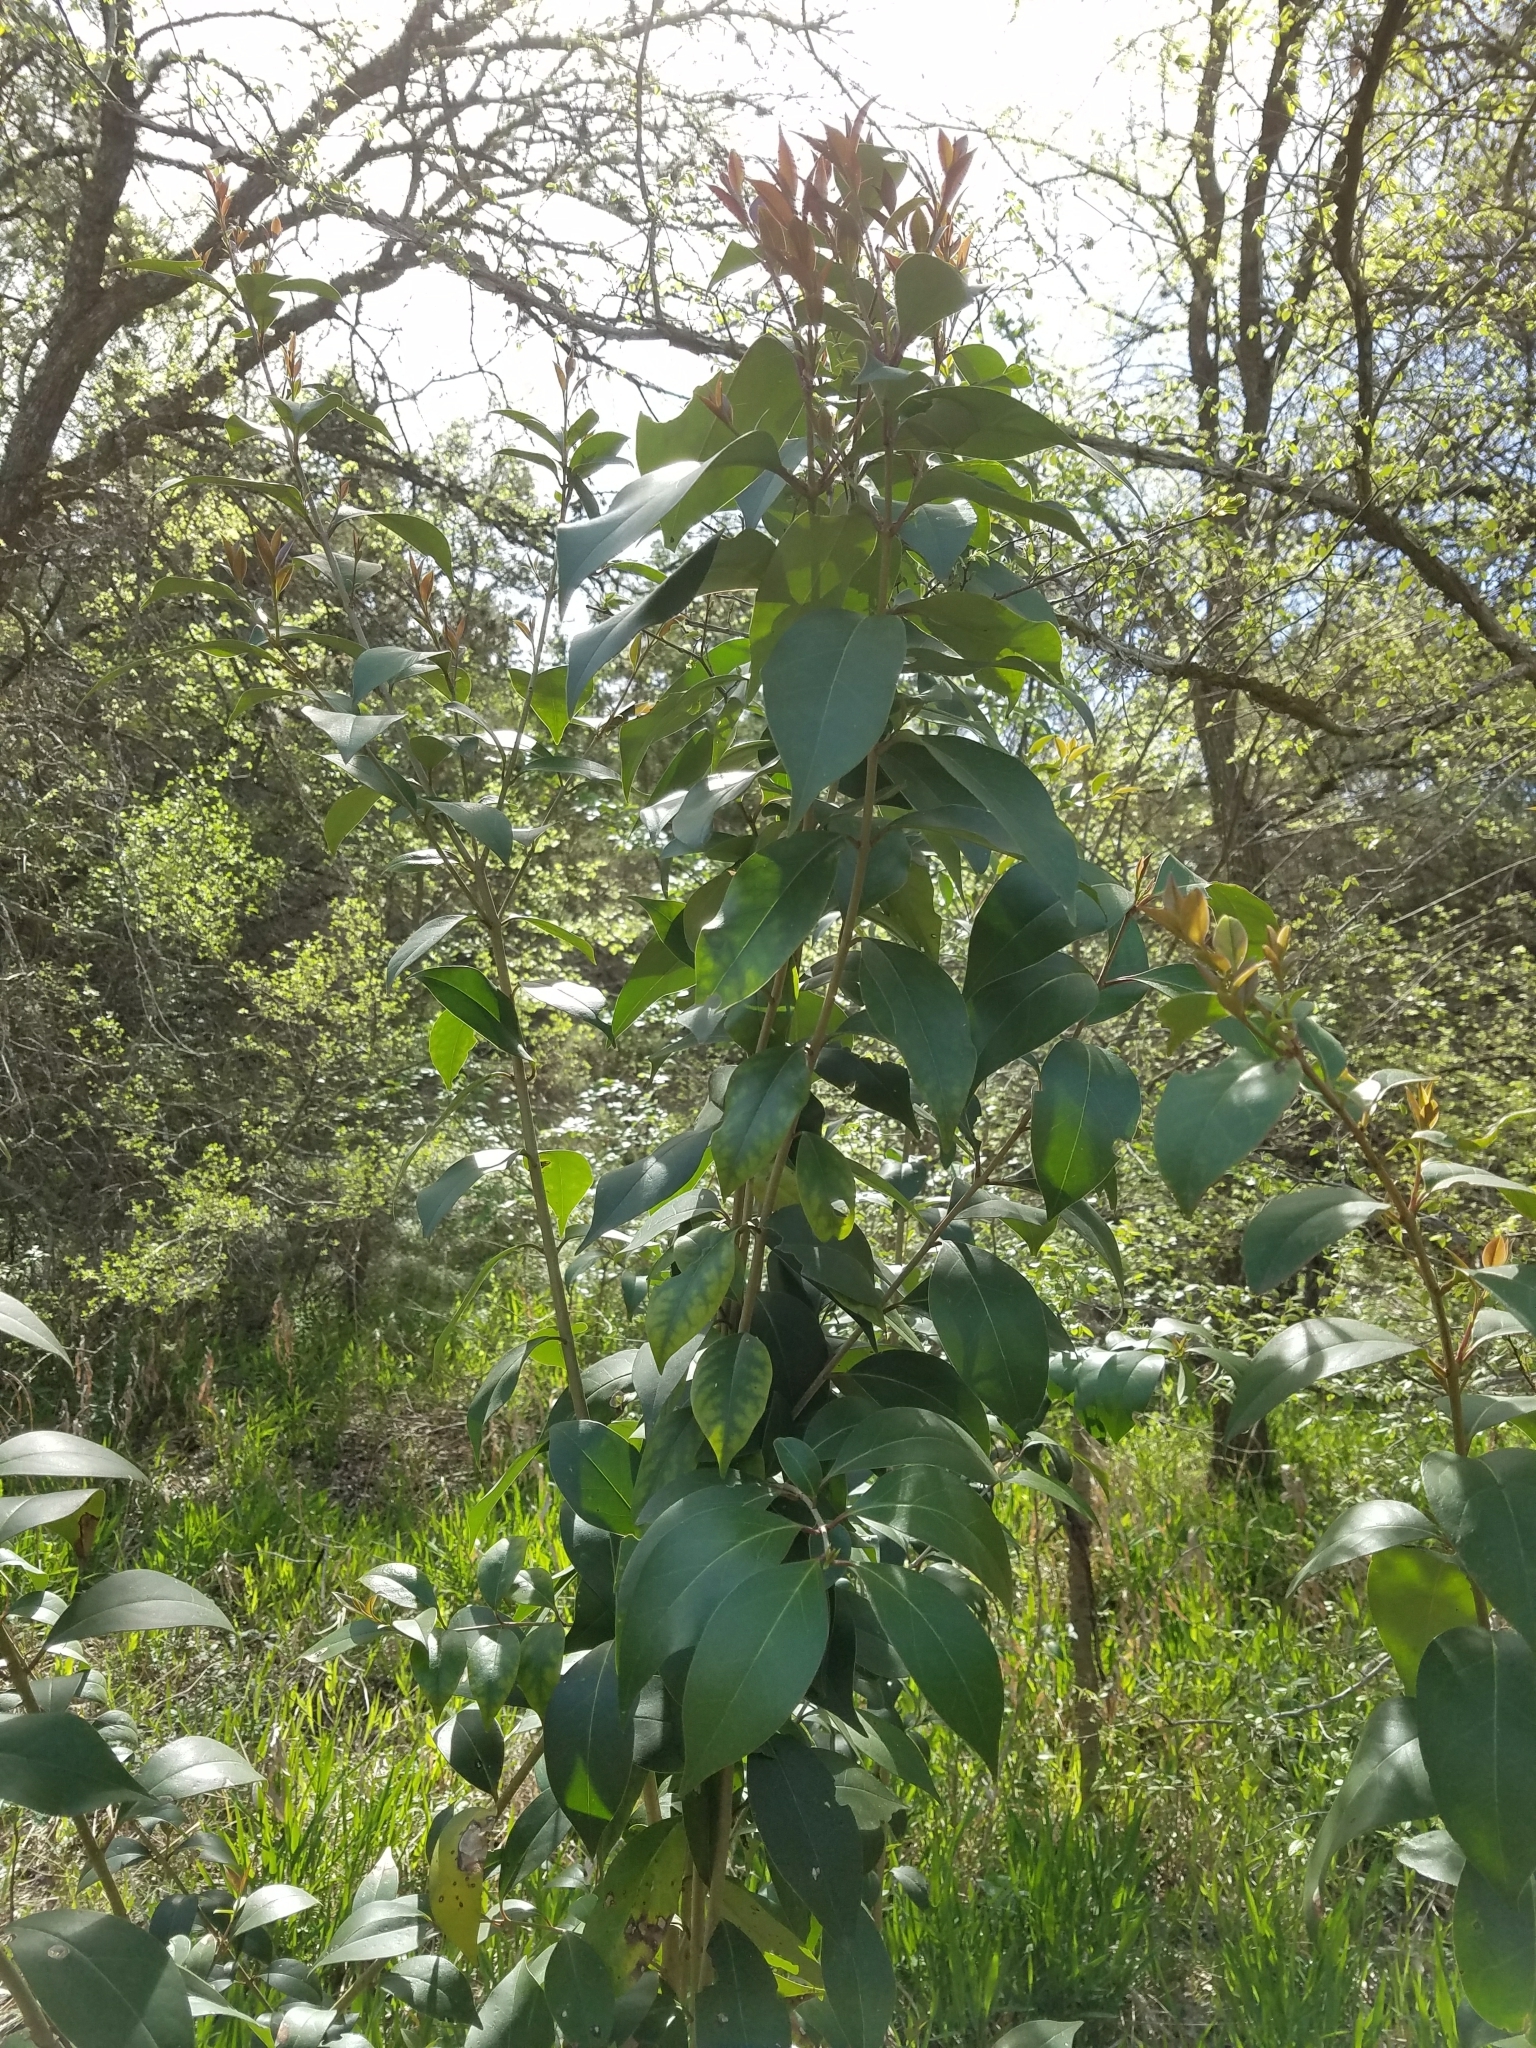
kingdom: Plantae
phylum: Tracheophyta
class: Magnoliopsida
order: Lamiales
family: Oleaceae
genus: Ligustrum
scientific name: Ligustrum lucidum
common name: Glossy privet
